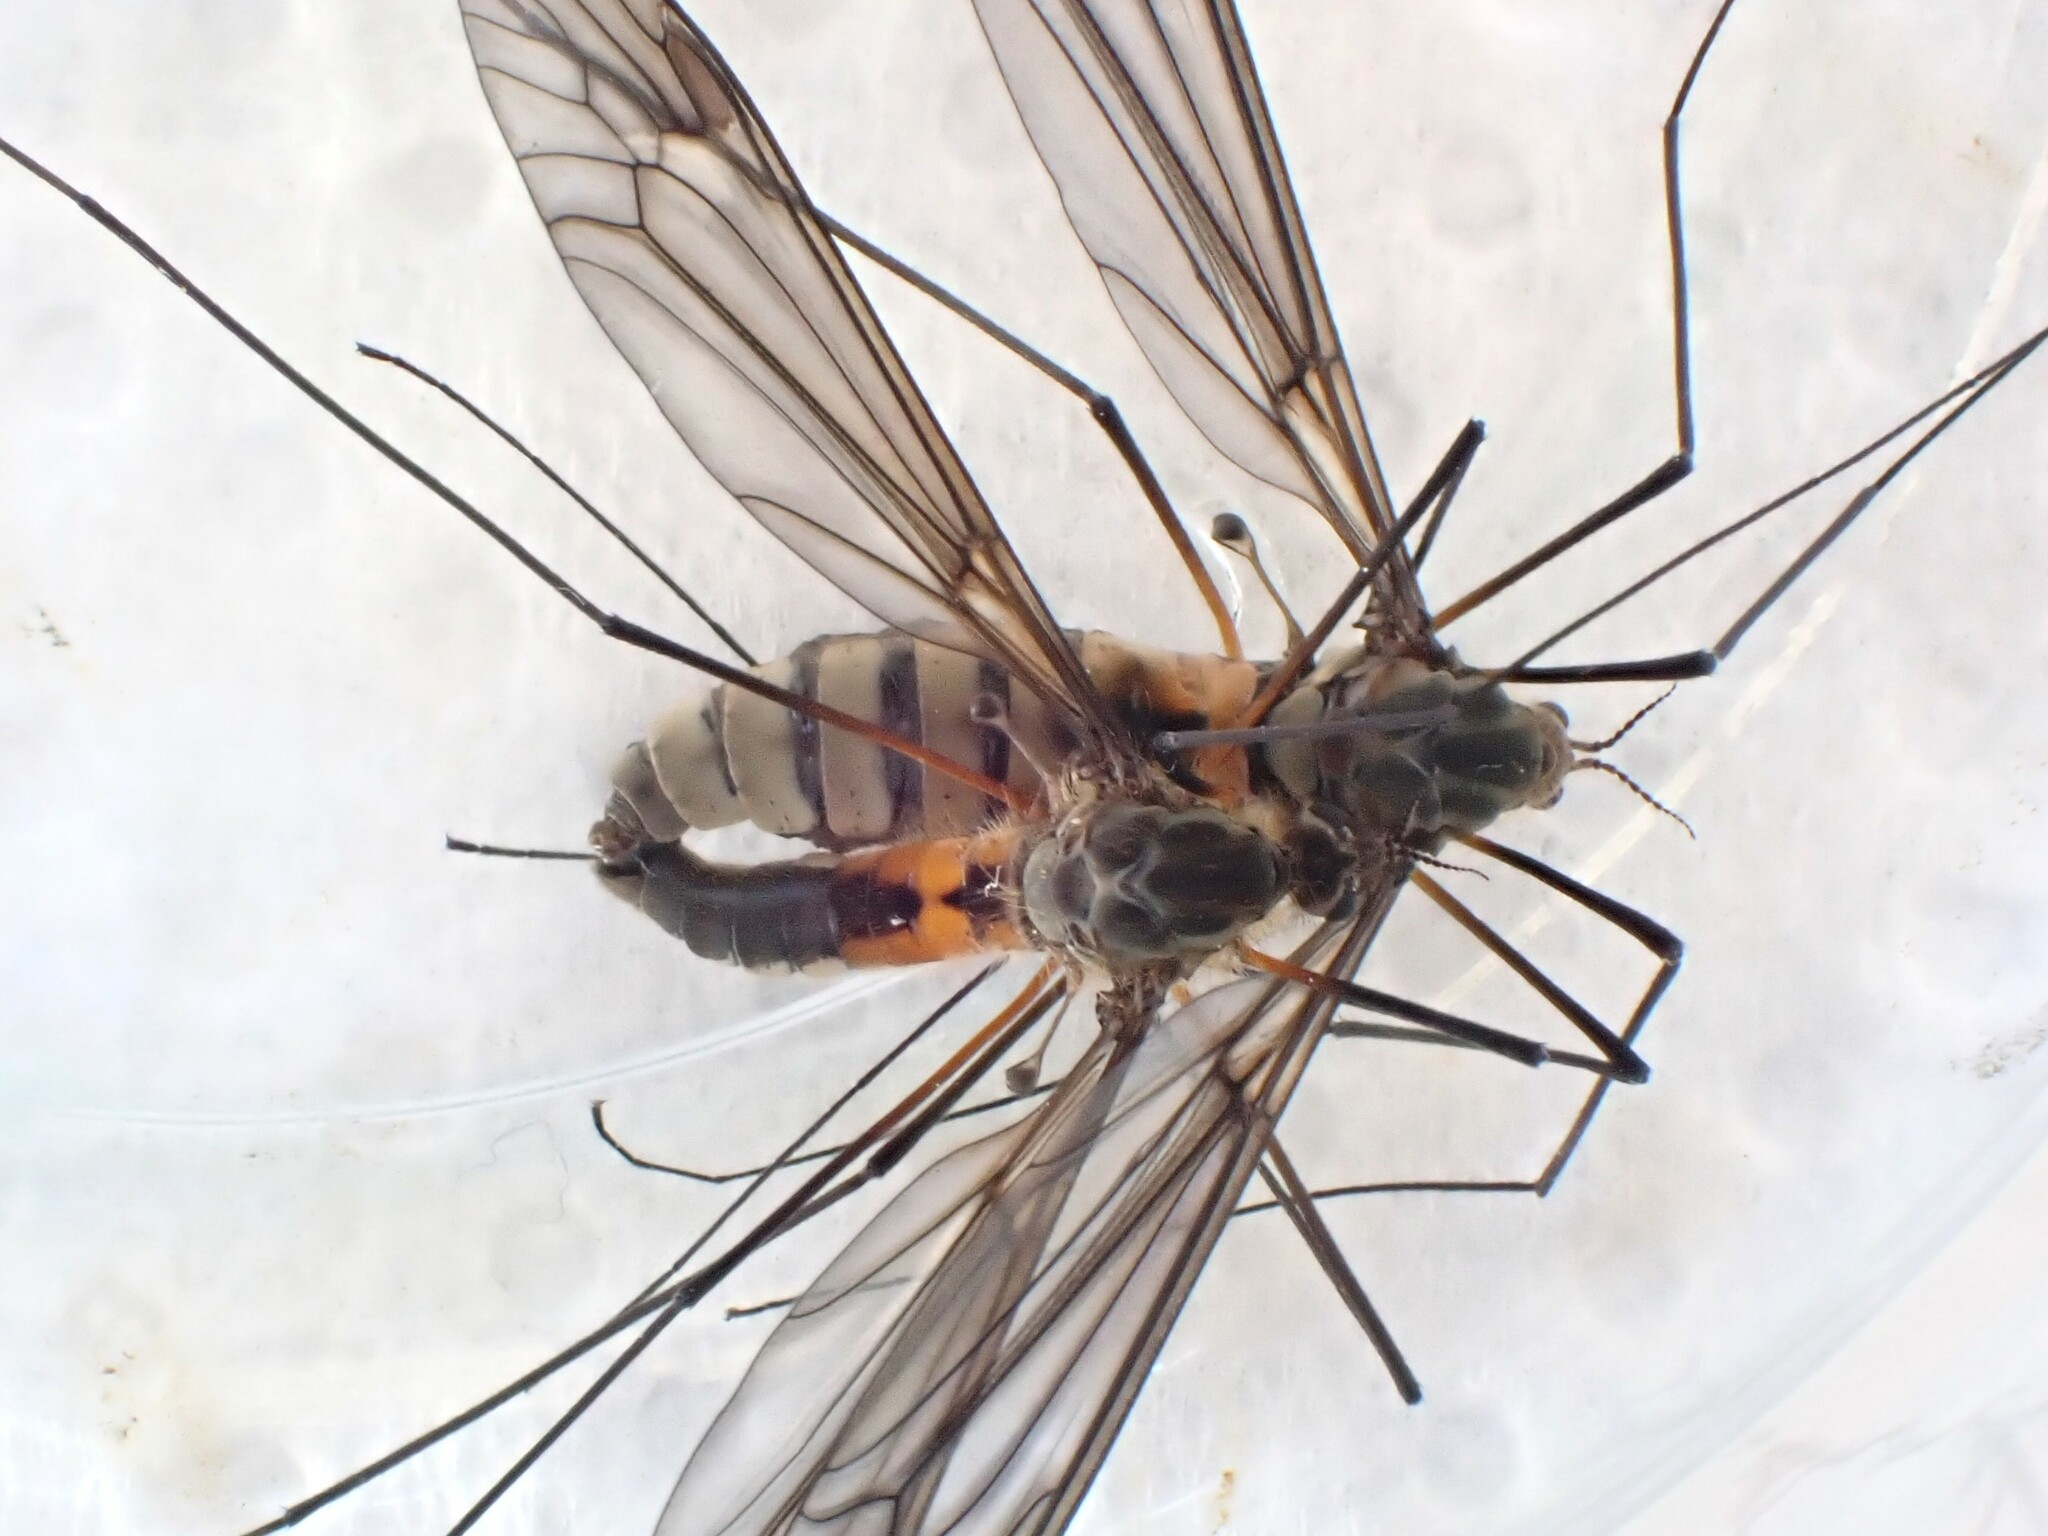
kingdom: Animalia
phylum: Arthropoda
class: Insecta
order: Diptera
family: Tipulidae
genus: Leptotarsus
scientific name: Leptotarsus rufibasis
